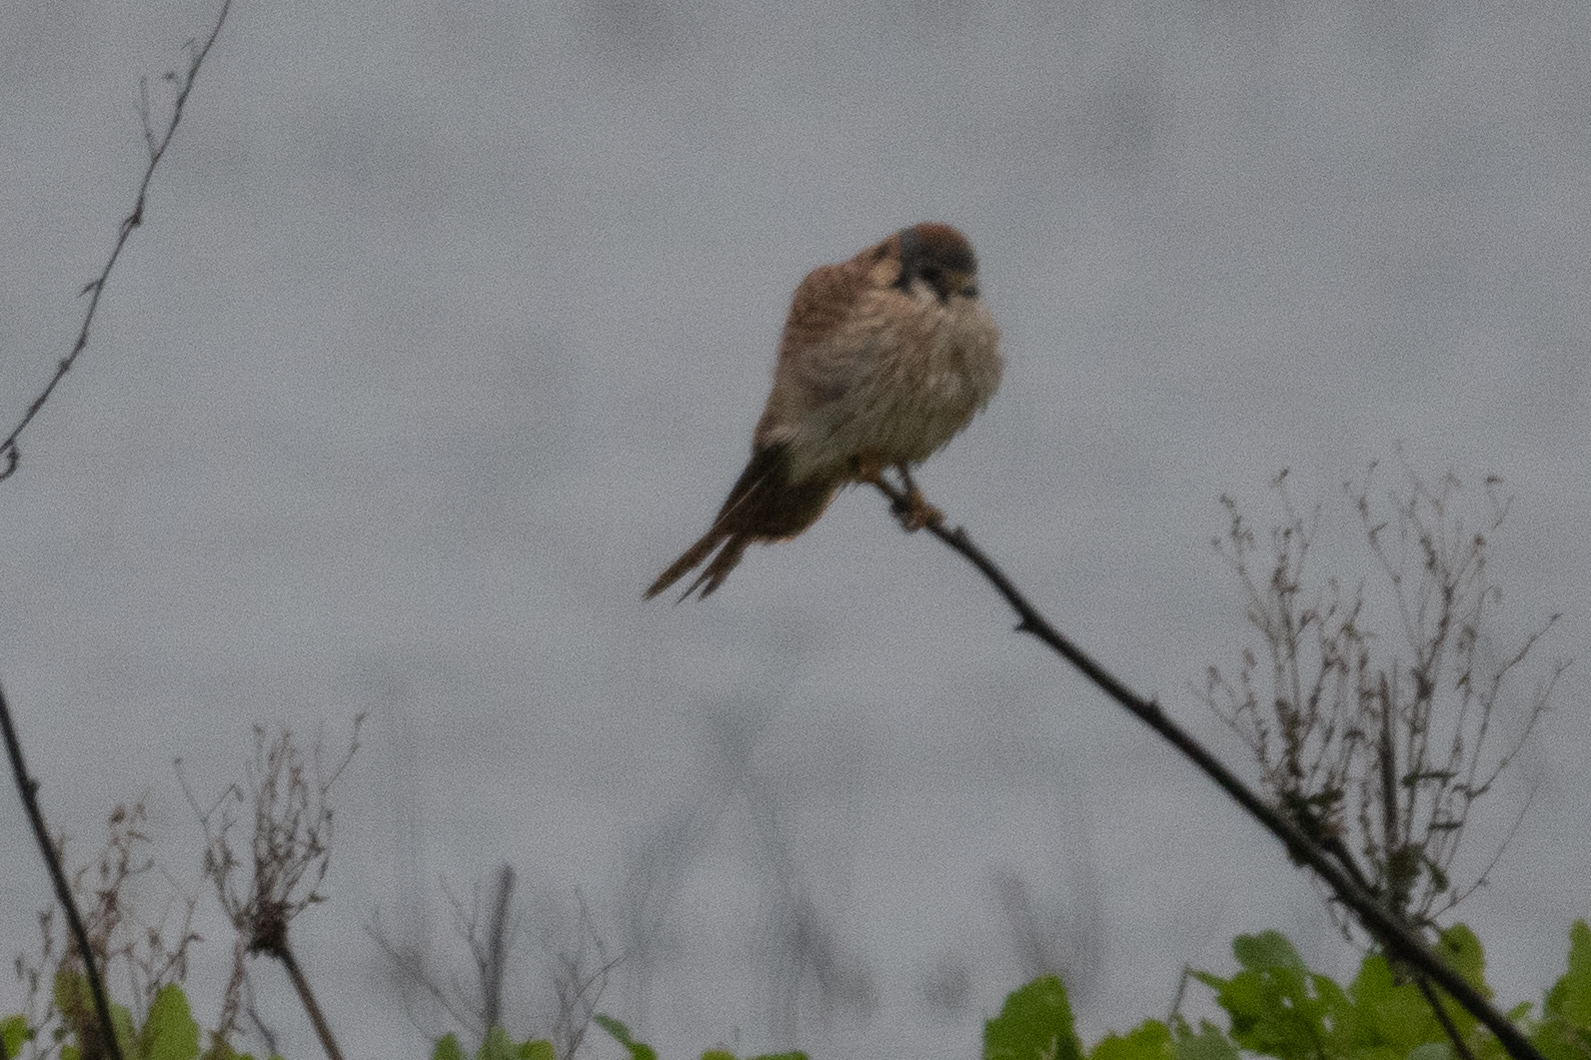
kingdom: Animalia
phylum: Chordata
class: Aves
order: Falconiformes
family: Falconidae
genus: Falco
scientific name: Falco sparverius
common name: American kestrel
